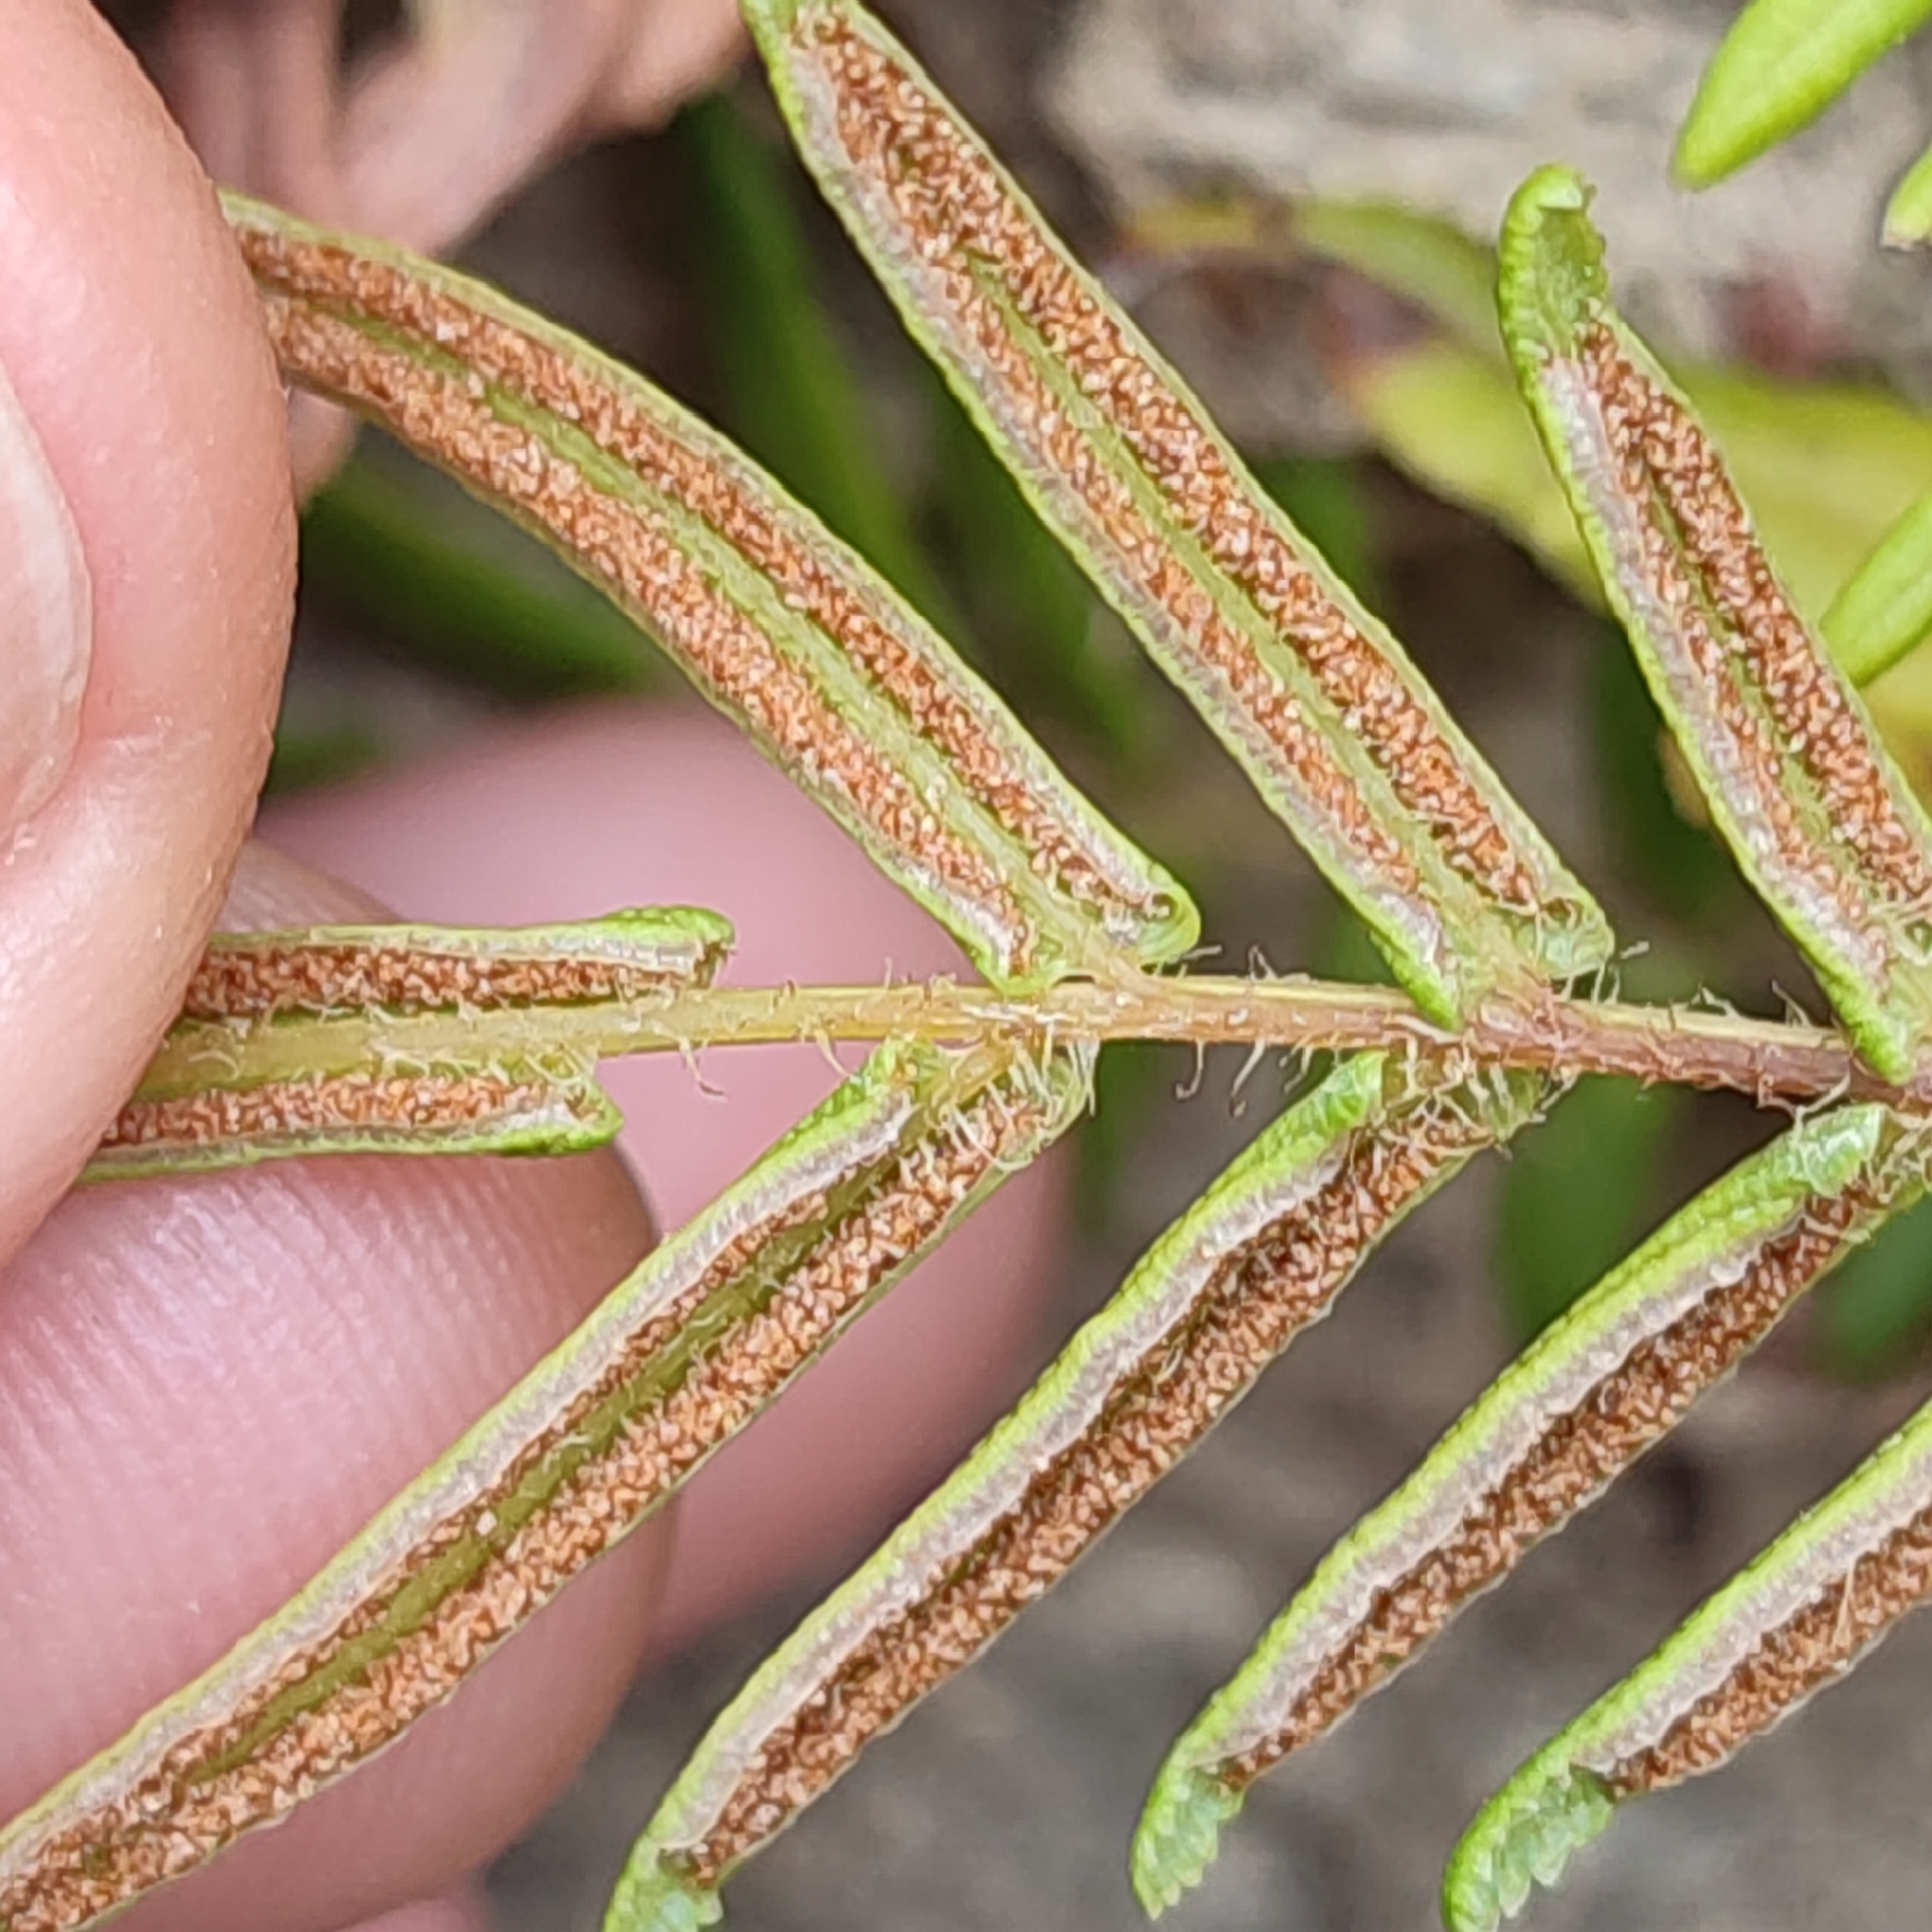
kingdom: Plantae
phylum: Tracheophyta
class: Polypodiopsida
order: Polypodiales
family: Pteridaceae
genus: Pteris
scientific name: Pteris vittata
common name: Ladder brake
